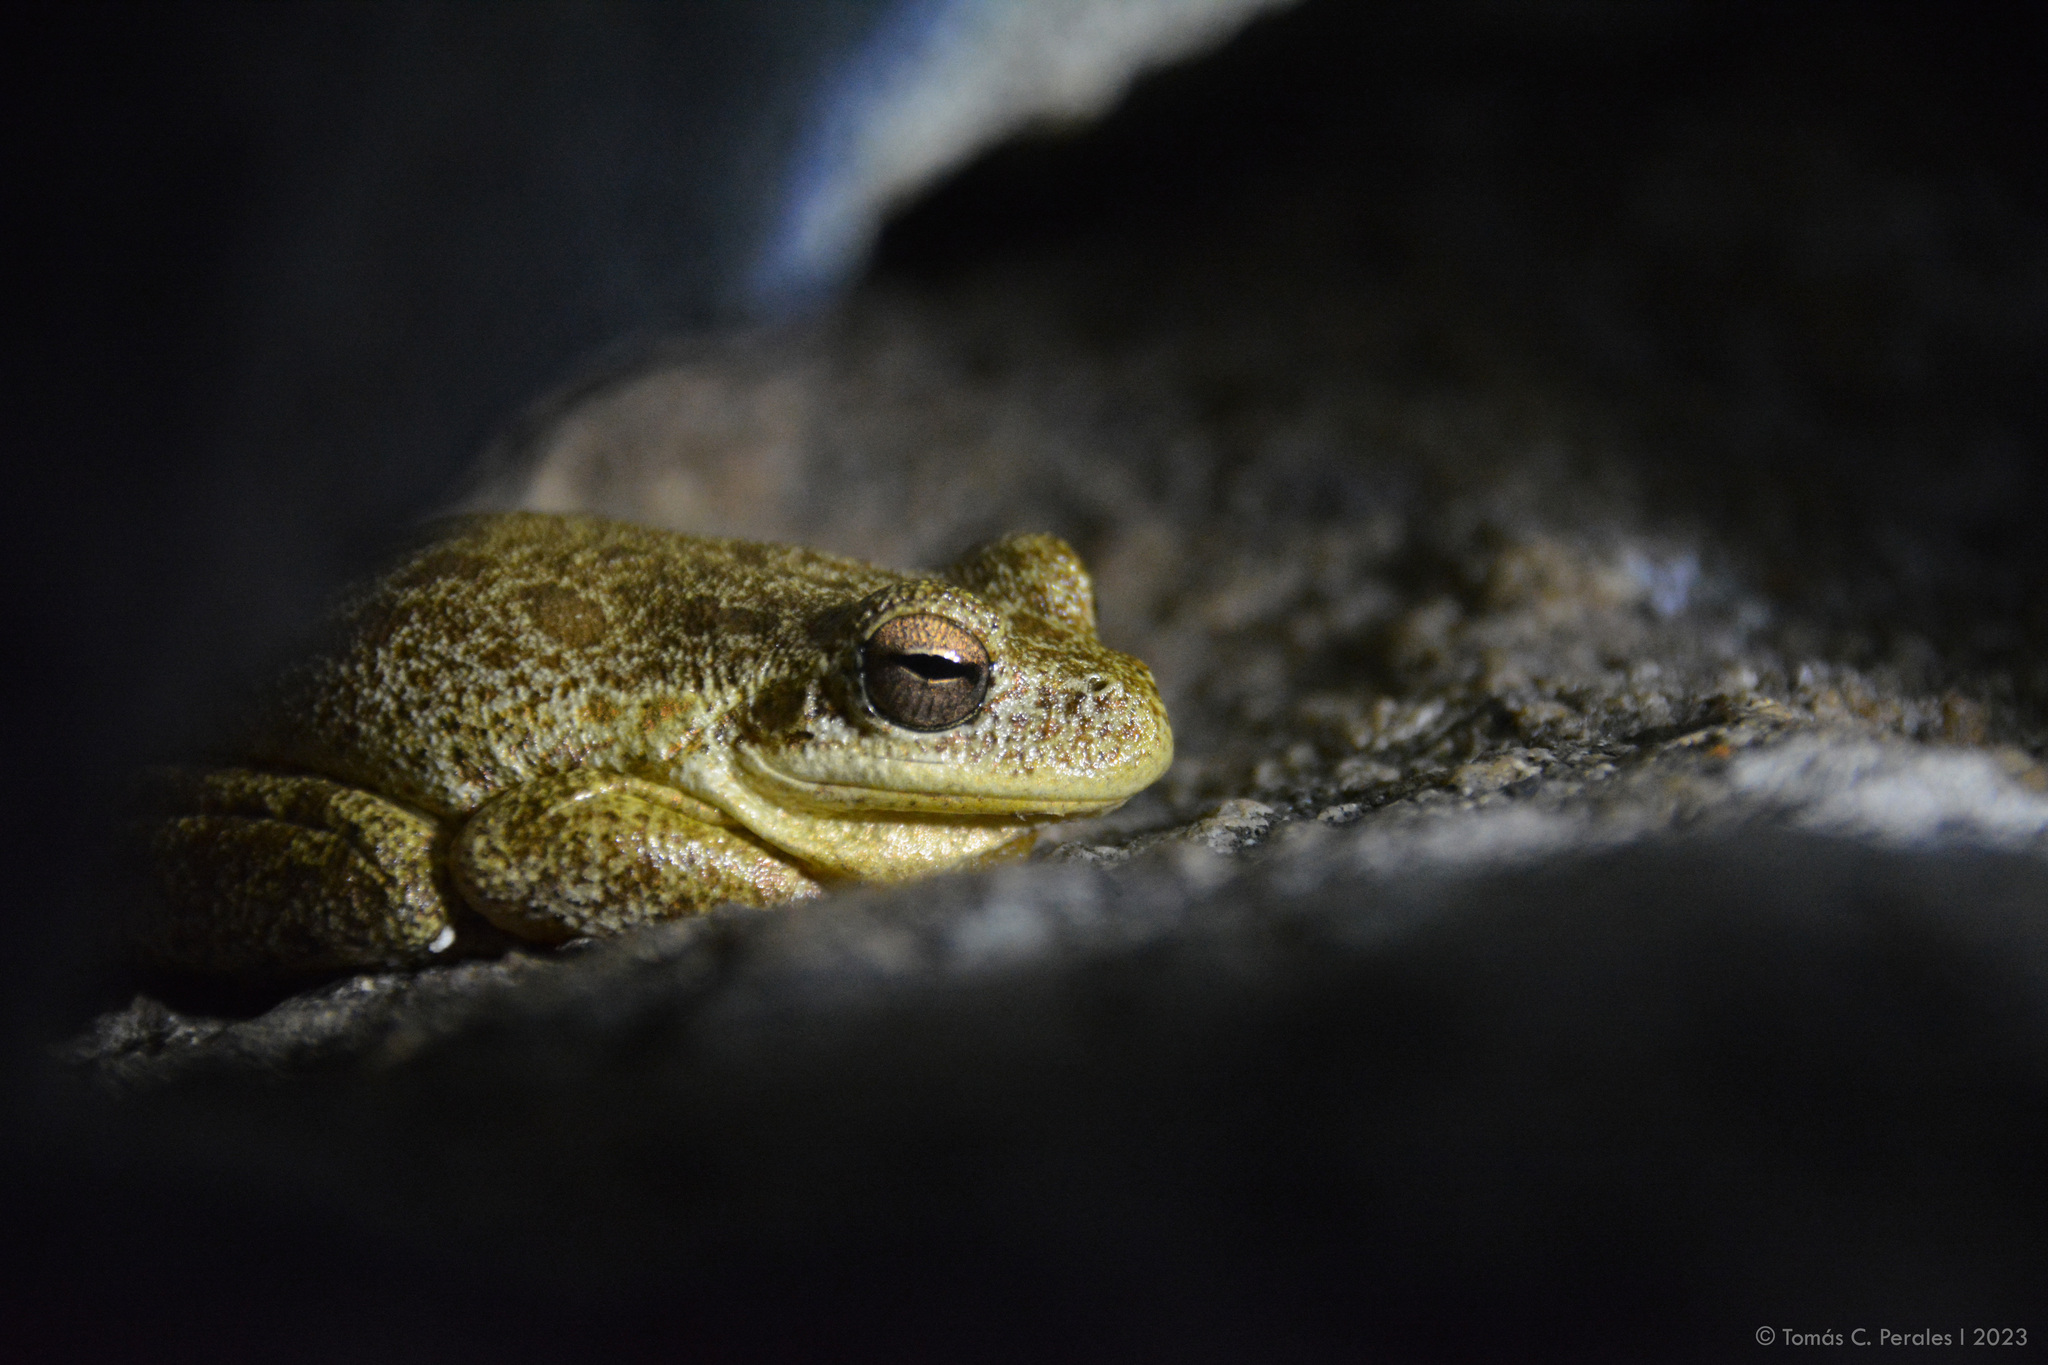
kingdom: Animalia
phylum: Chordata
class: Amphibia
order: Anura
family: Hylidae
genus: Boana
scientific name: Boana cordobae
